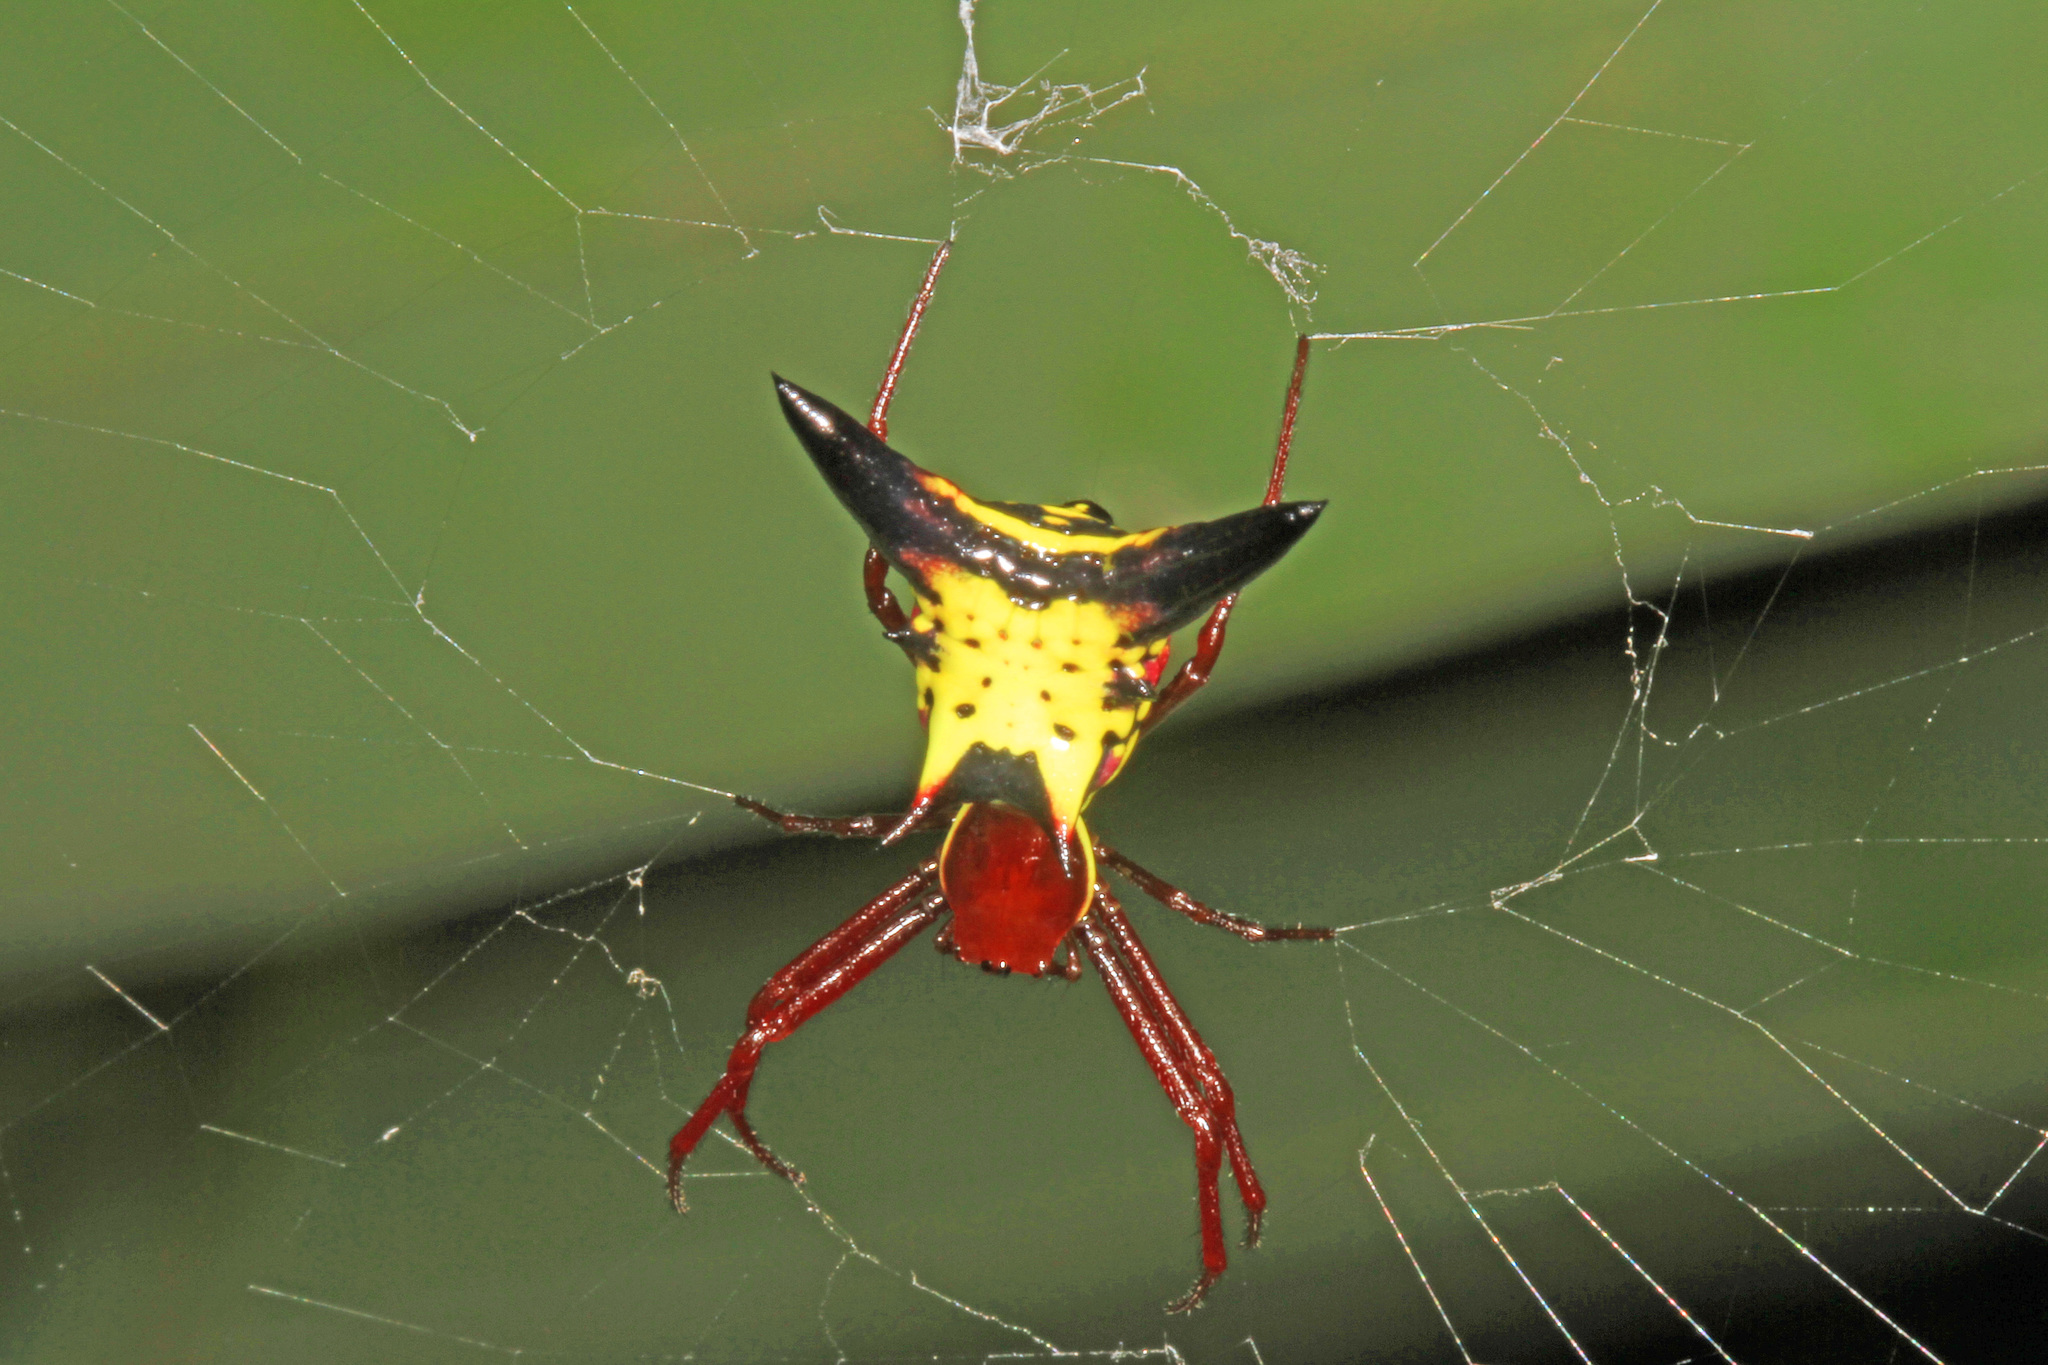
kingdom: Animalia
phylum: Arthropoda
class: Arachnida
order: Araneae
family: Araneidae
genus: Micrathena
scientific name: Micrathena sagittata
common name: Orb weavers
